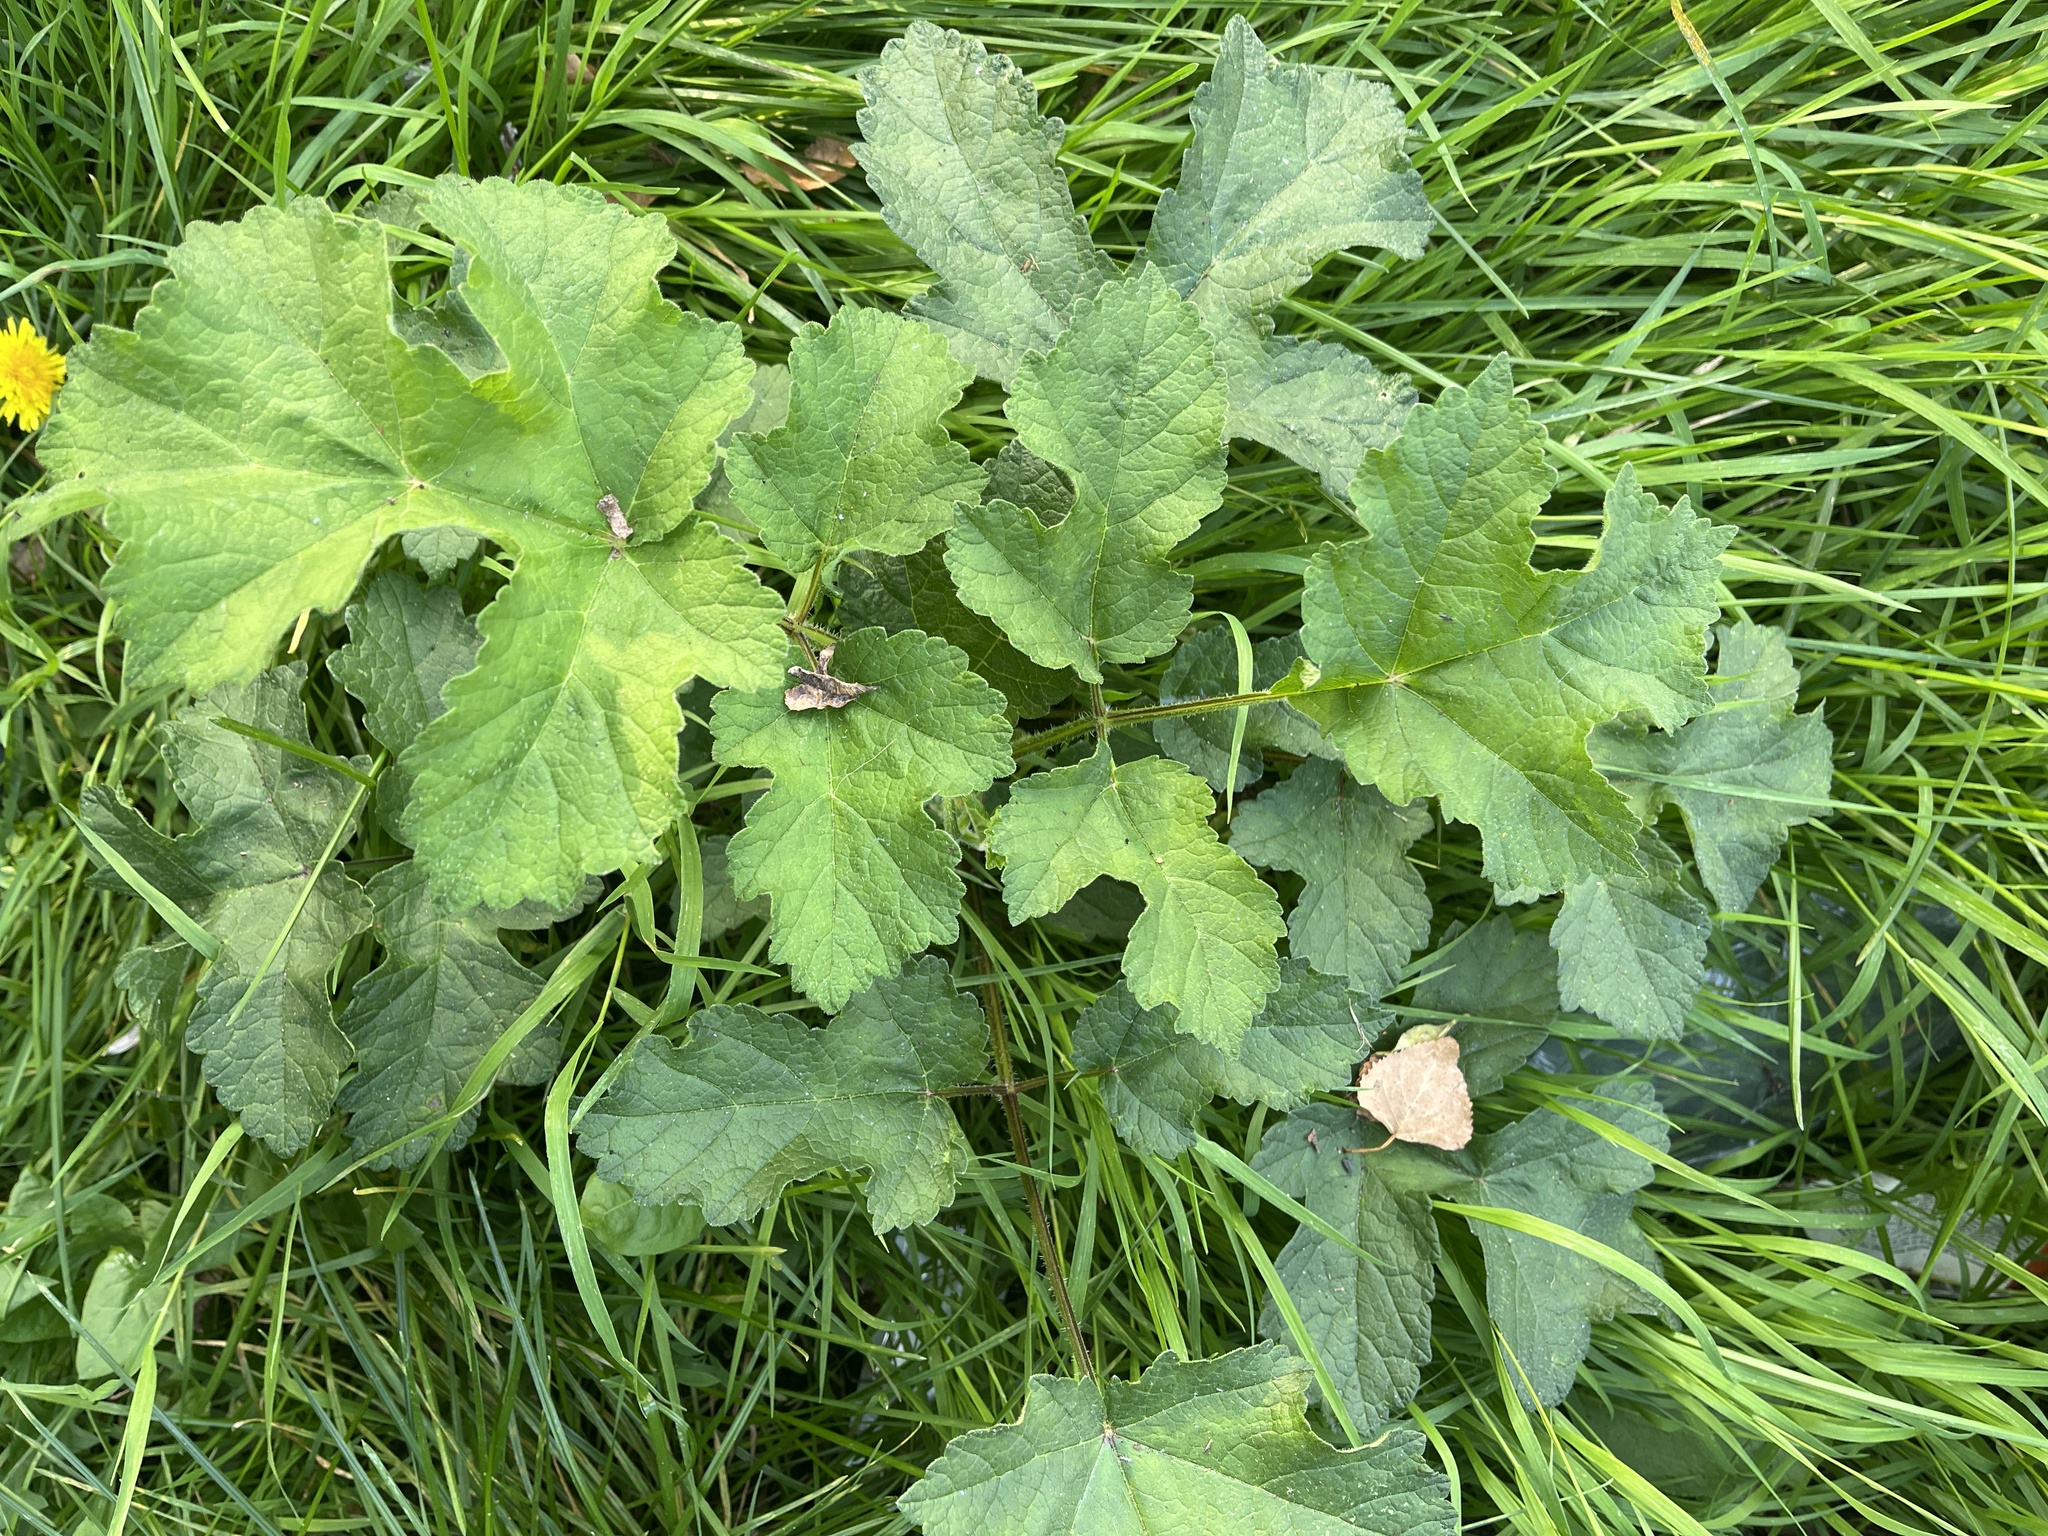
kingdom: Plantae
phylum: Tracheophyta
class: Magnoliopsida
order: Apiales
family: Apiaceae
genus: Heracleum
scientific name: Heracleum sphondylium
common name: Hogweed
